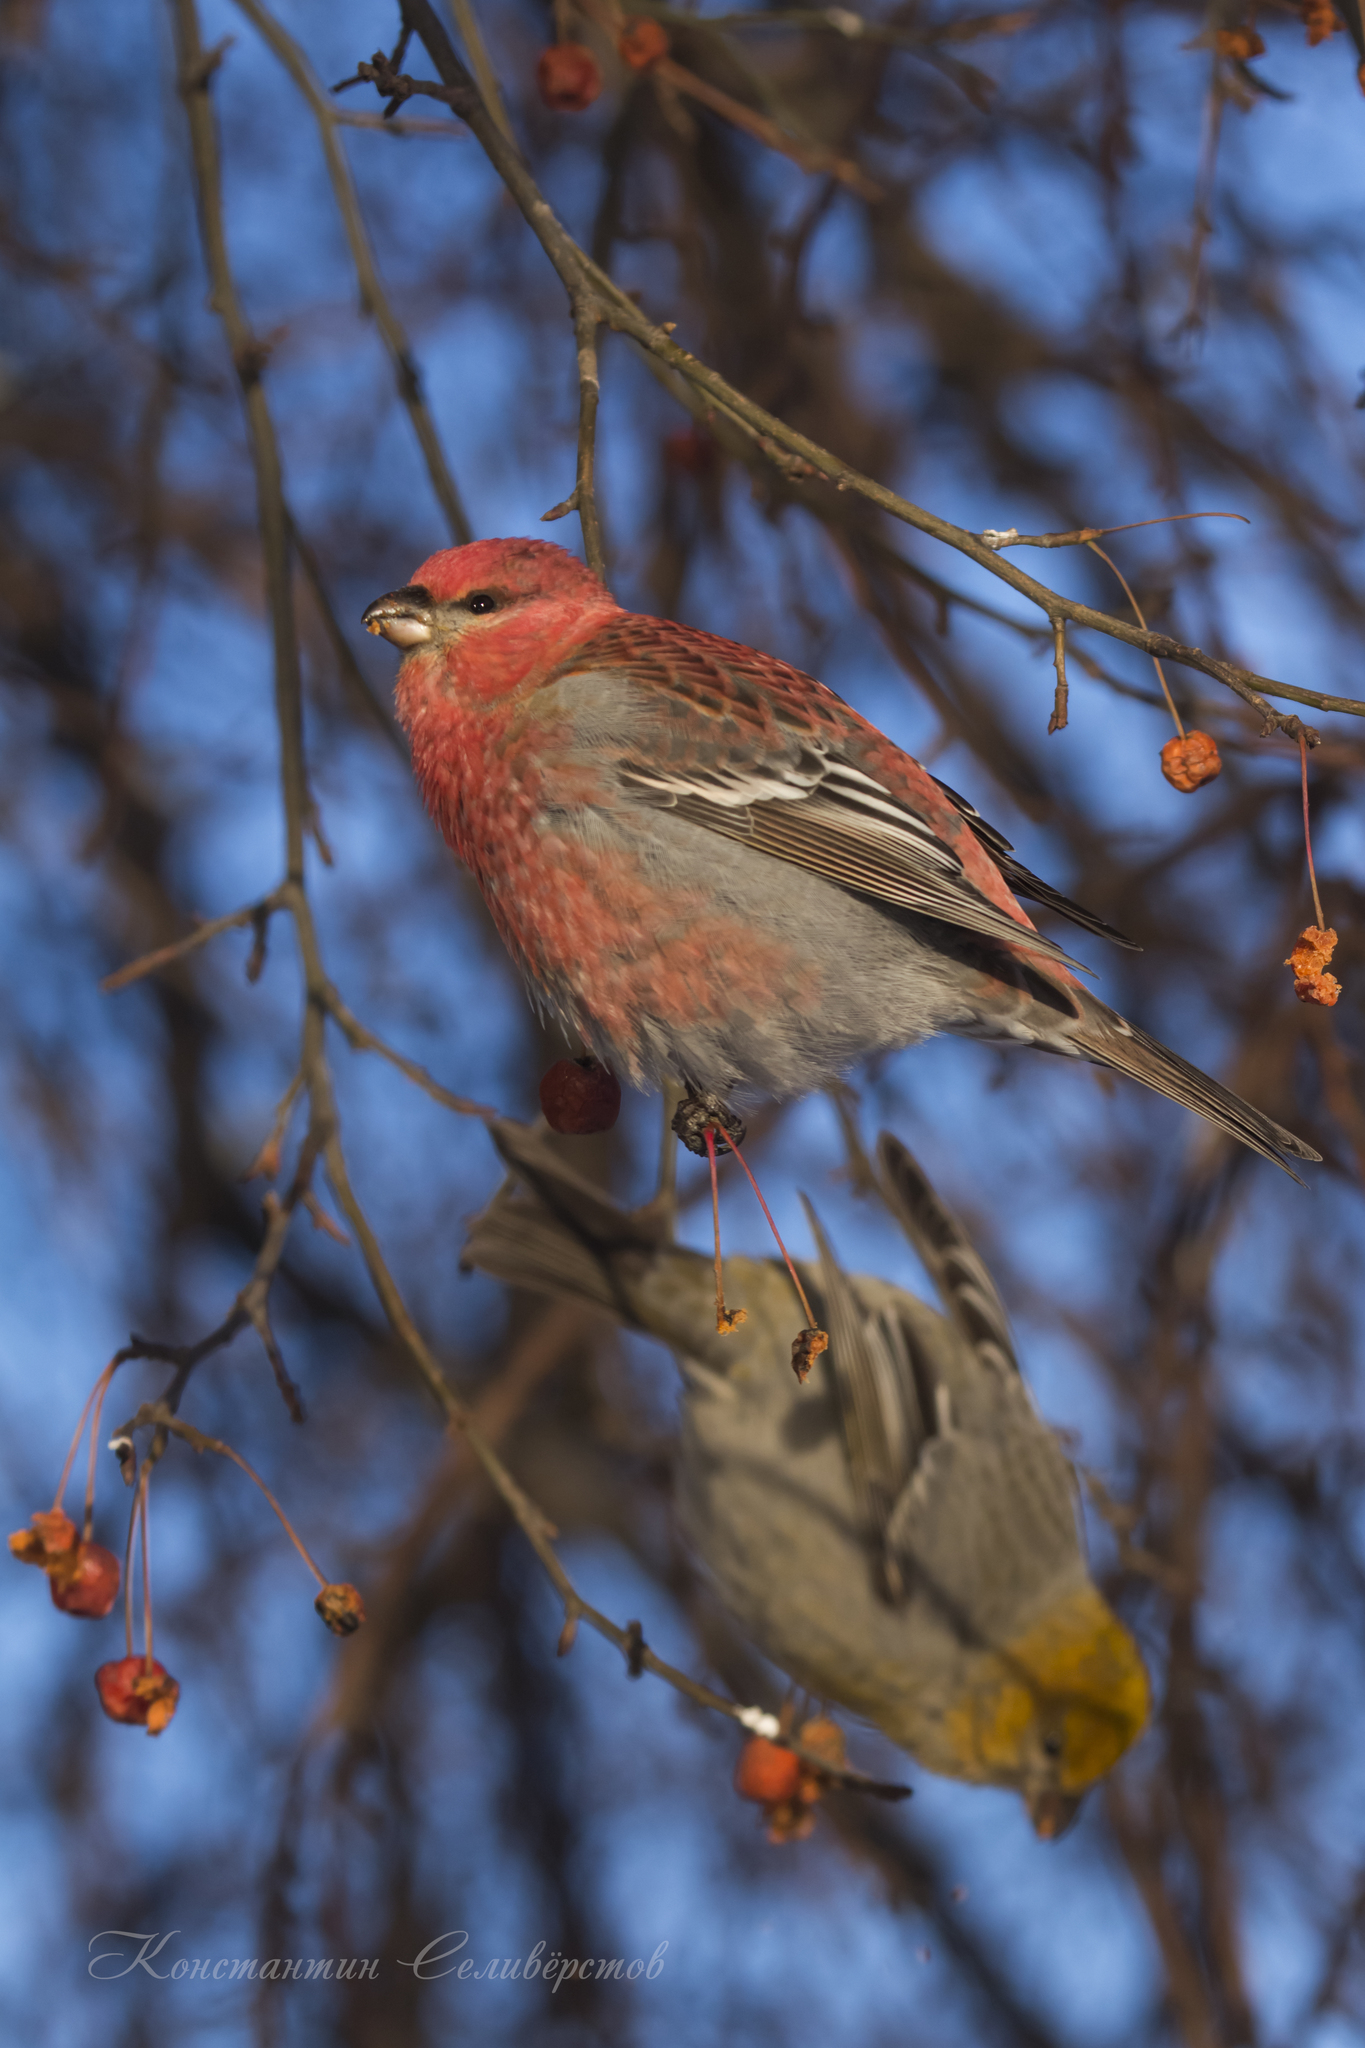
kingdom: Animalia
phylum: Chordata
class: Aves
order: Passeriformes
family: Fringillidae
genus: Pinicola
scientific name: Pinicola enucleator
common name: Pine grosbeak
